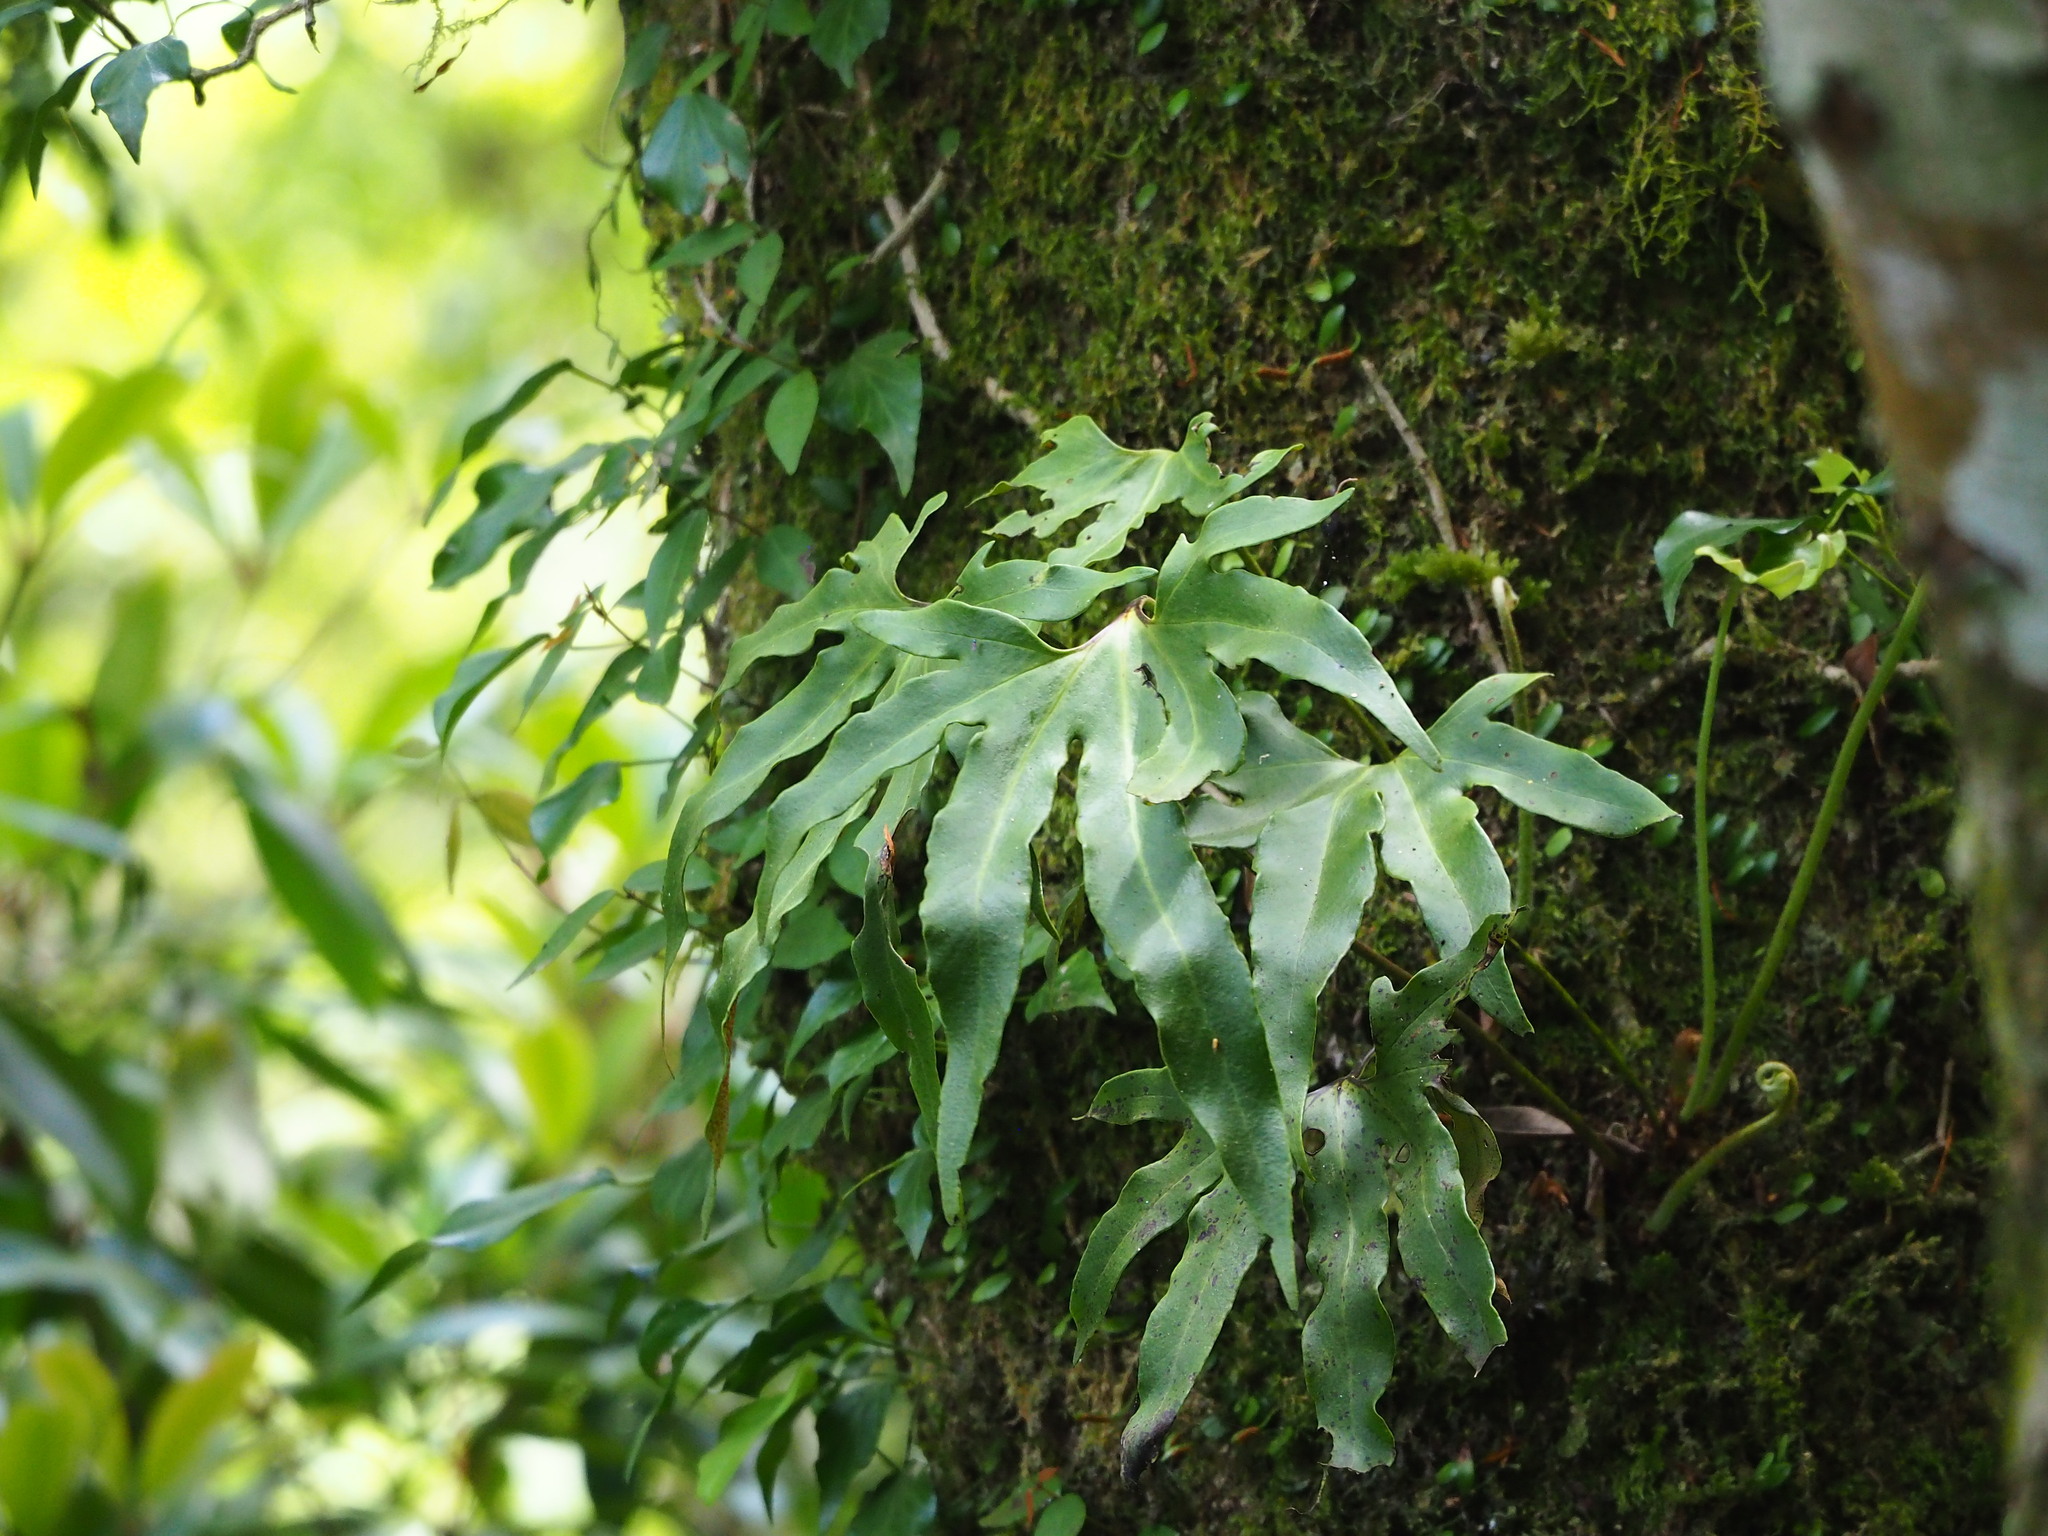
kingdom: Plantae
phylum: Tracheophyta
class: Polypodiopsida
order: Polypodiales
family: Polypodiaceae
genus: Pyrrosia
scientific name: Pyrrosia polydactyla
